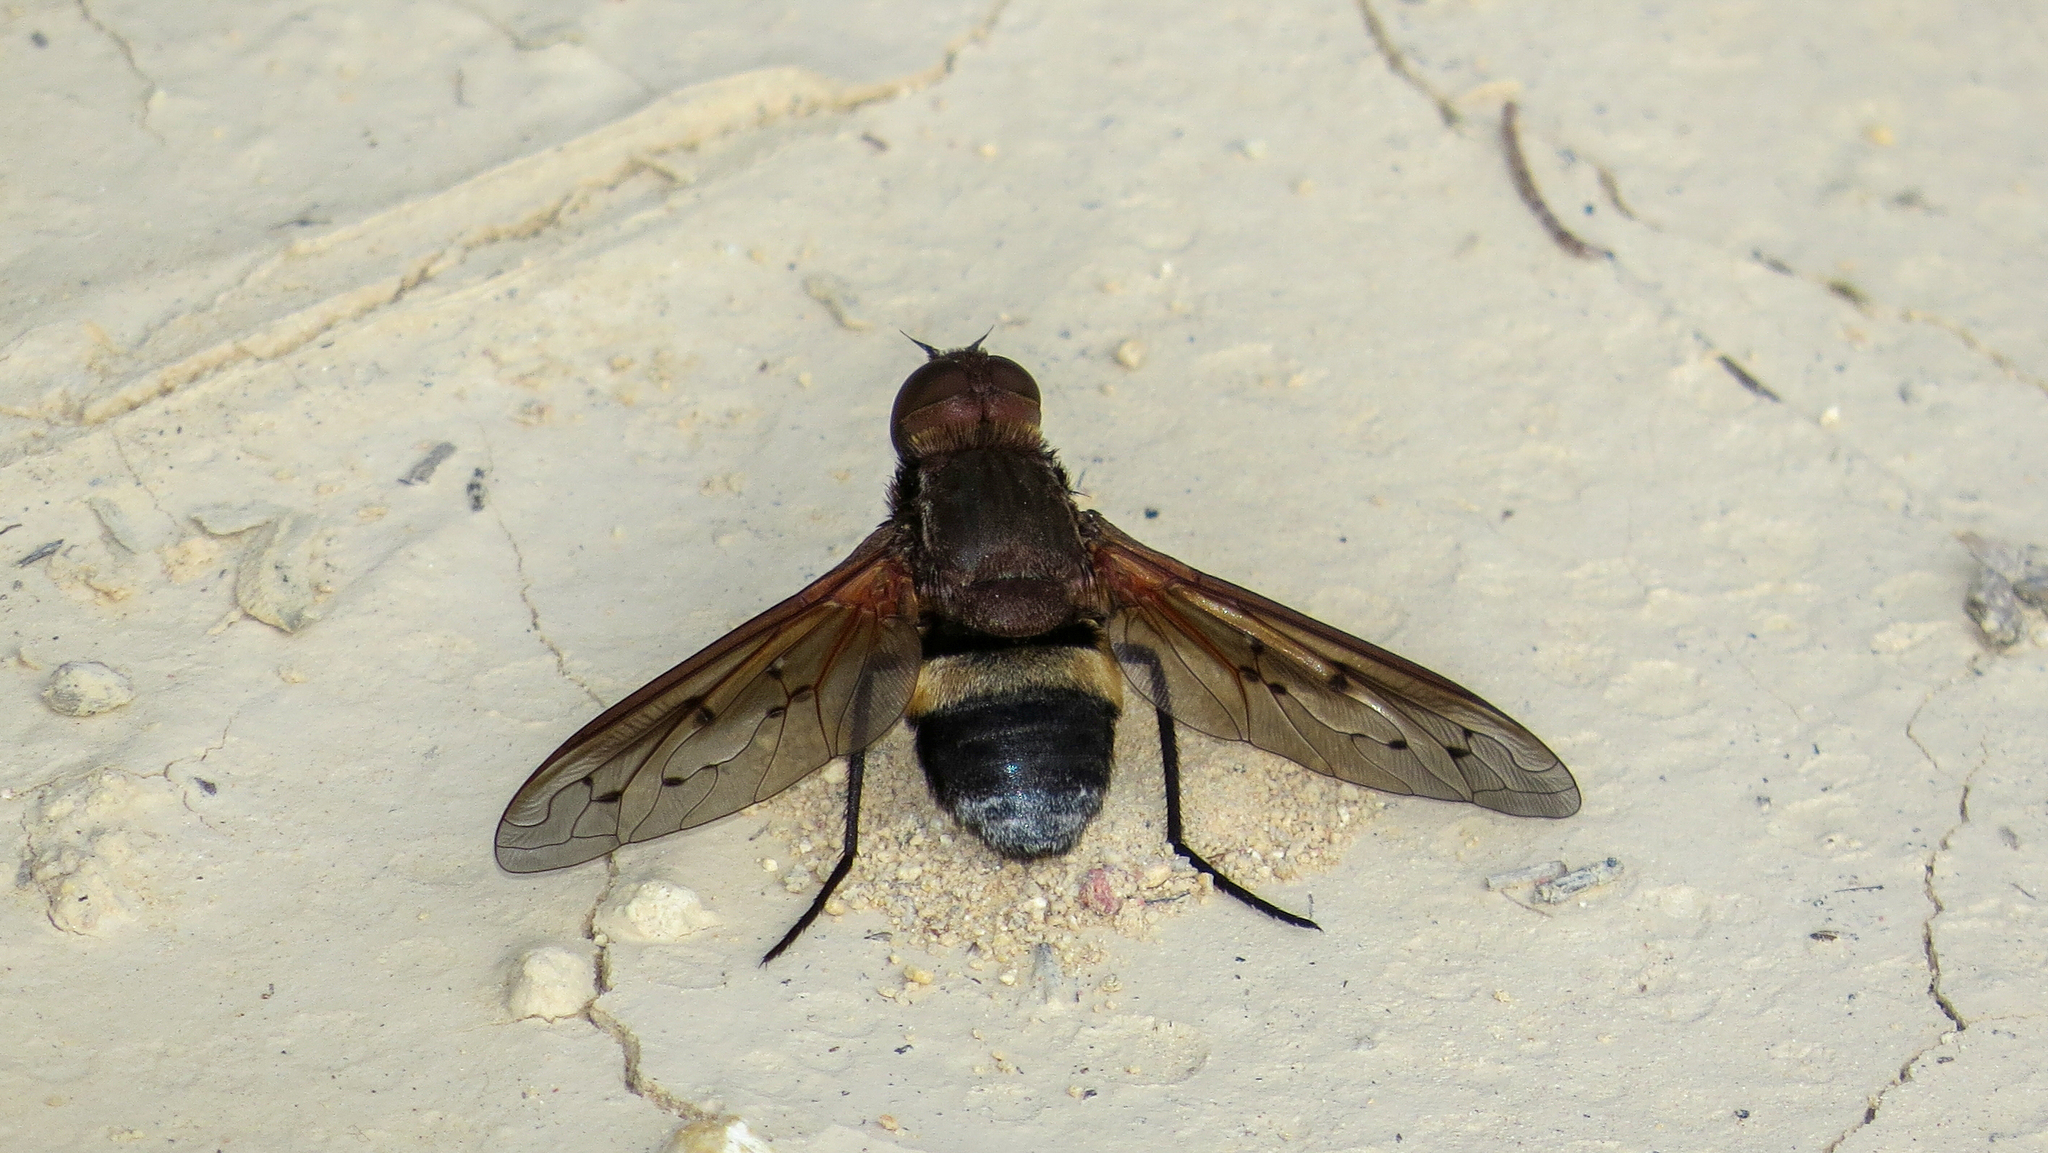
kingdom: Animalia
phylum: Arthropoda
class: Insecta
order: Diptera
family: Bombyliidae
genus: Ligyra
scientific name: Ligyra punctipennis
